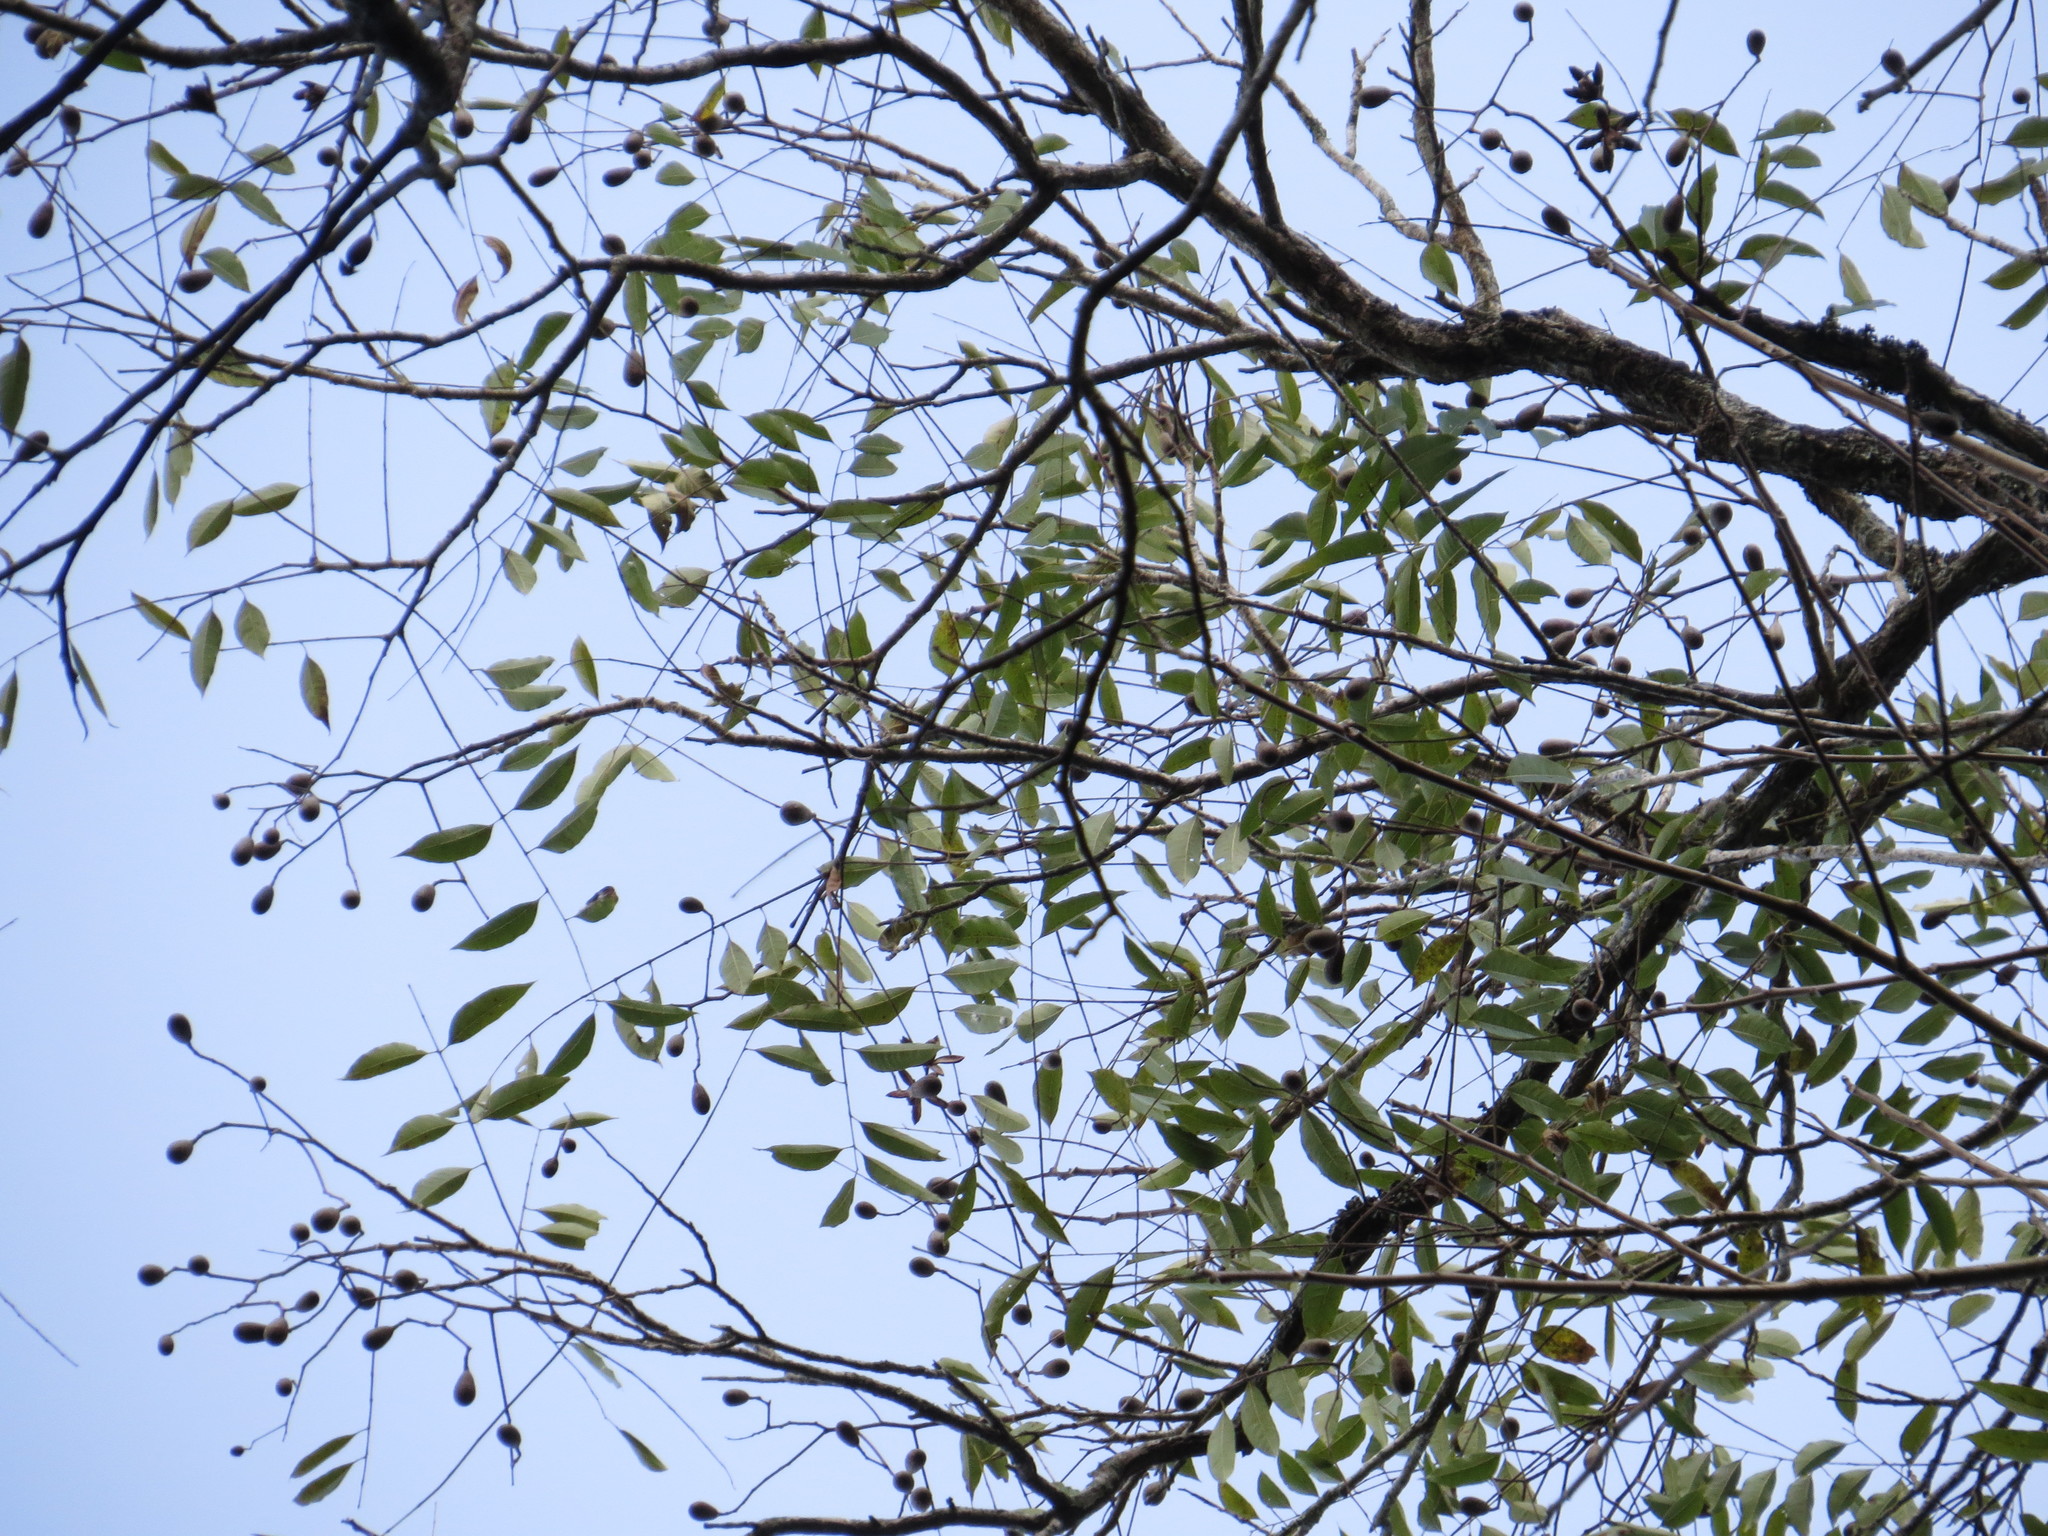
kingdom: Plantae
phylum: Tracheophyta
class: Magnoliopsida
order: Sapindales
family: Meliaceae
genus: Cedrela
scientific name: Cedrela odorata
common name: Red cedar
